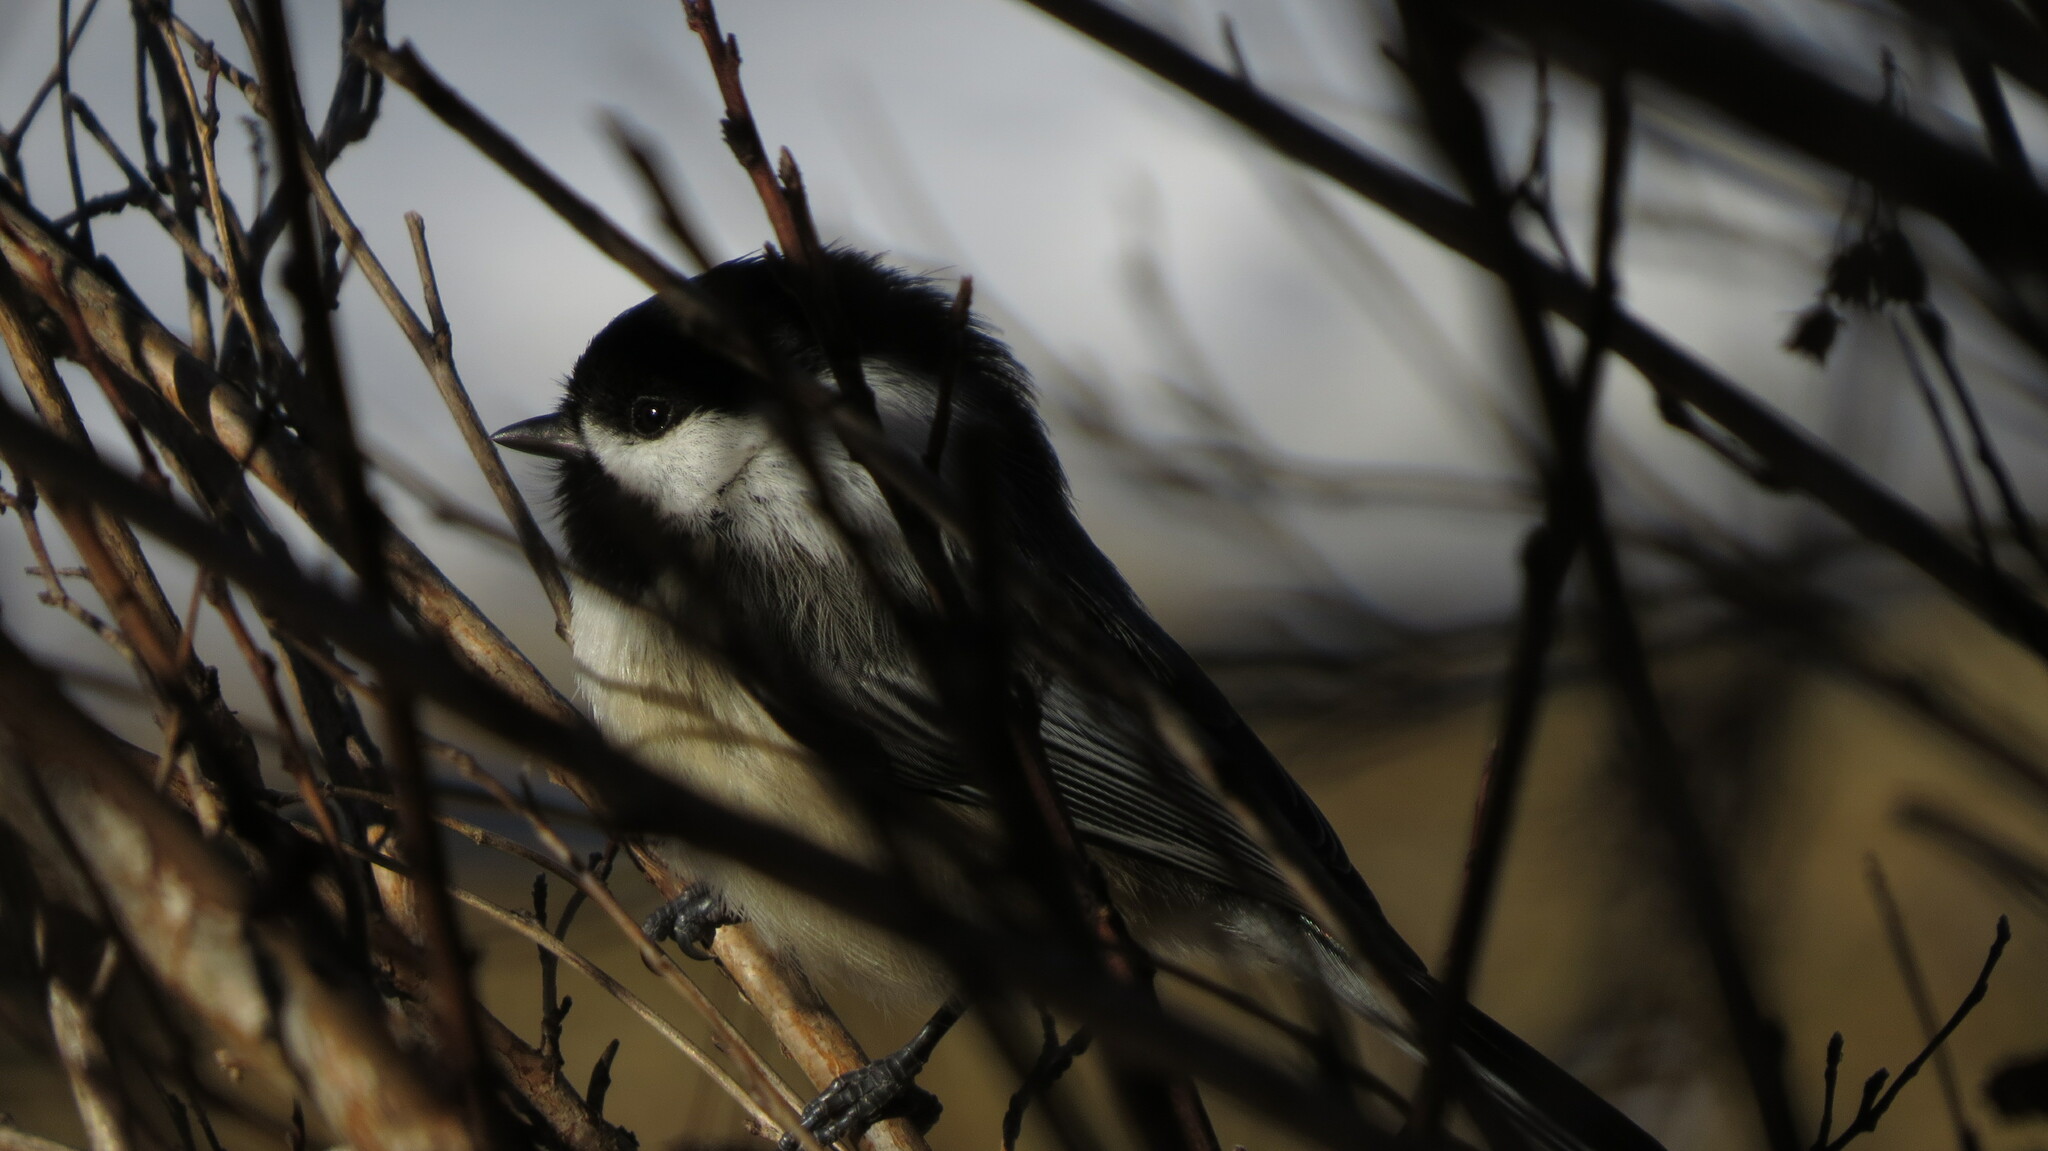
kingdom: Animalia
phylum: Chordata
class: Aves
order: Passeriformes
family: Paridae
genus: Poecile
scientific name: Poecile atricapillus
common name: Black-capped chickadee
